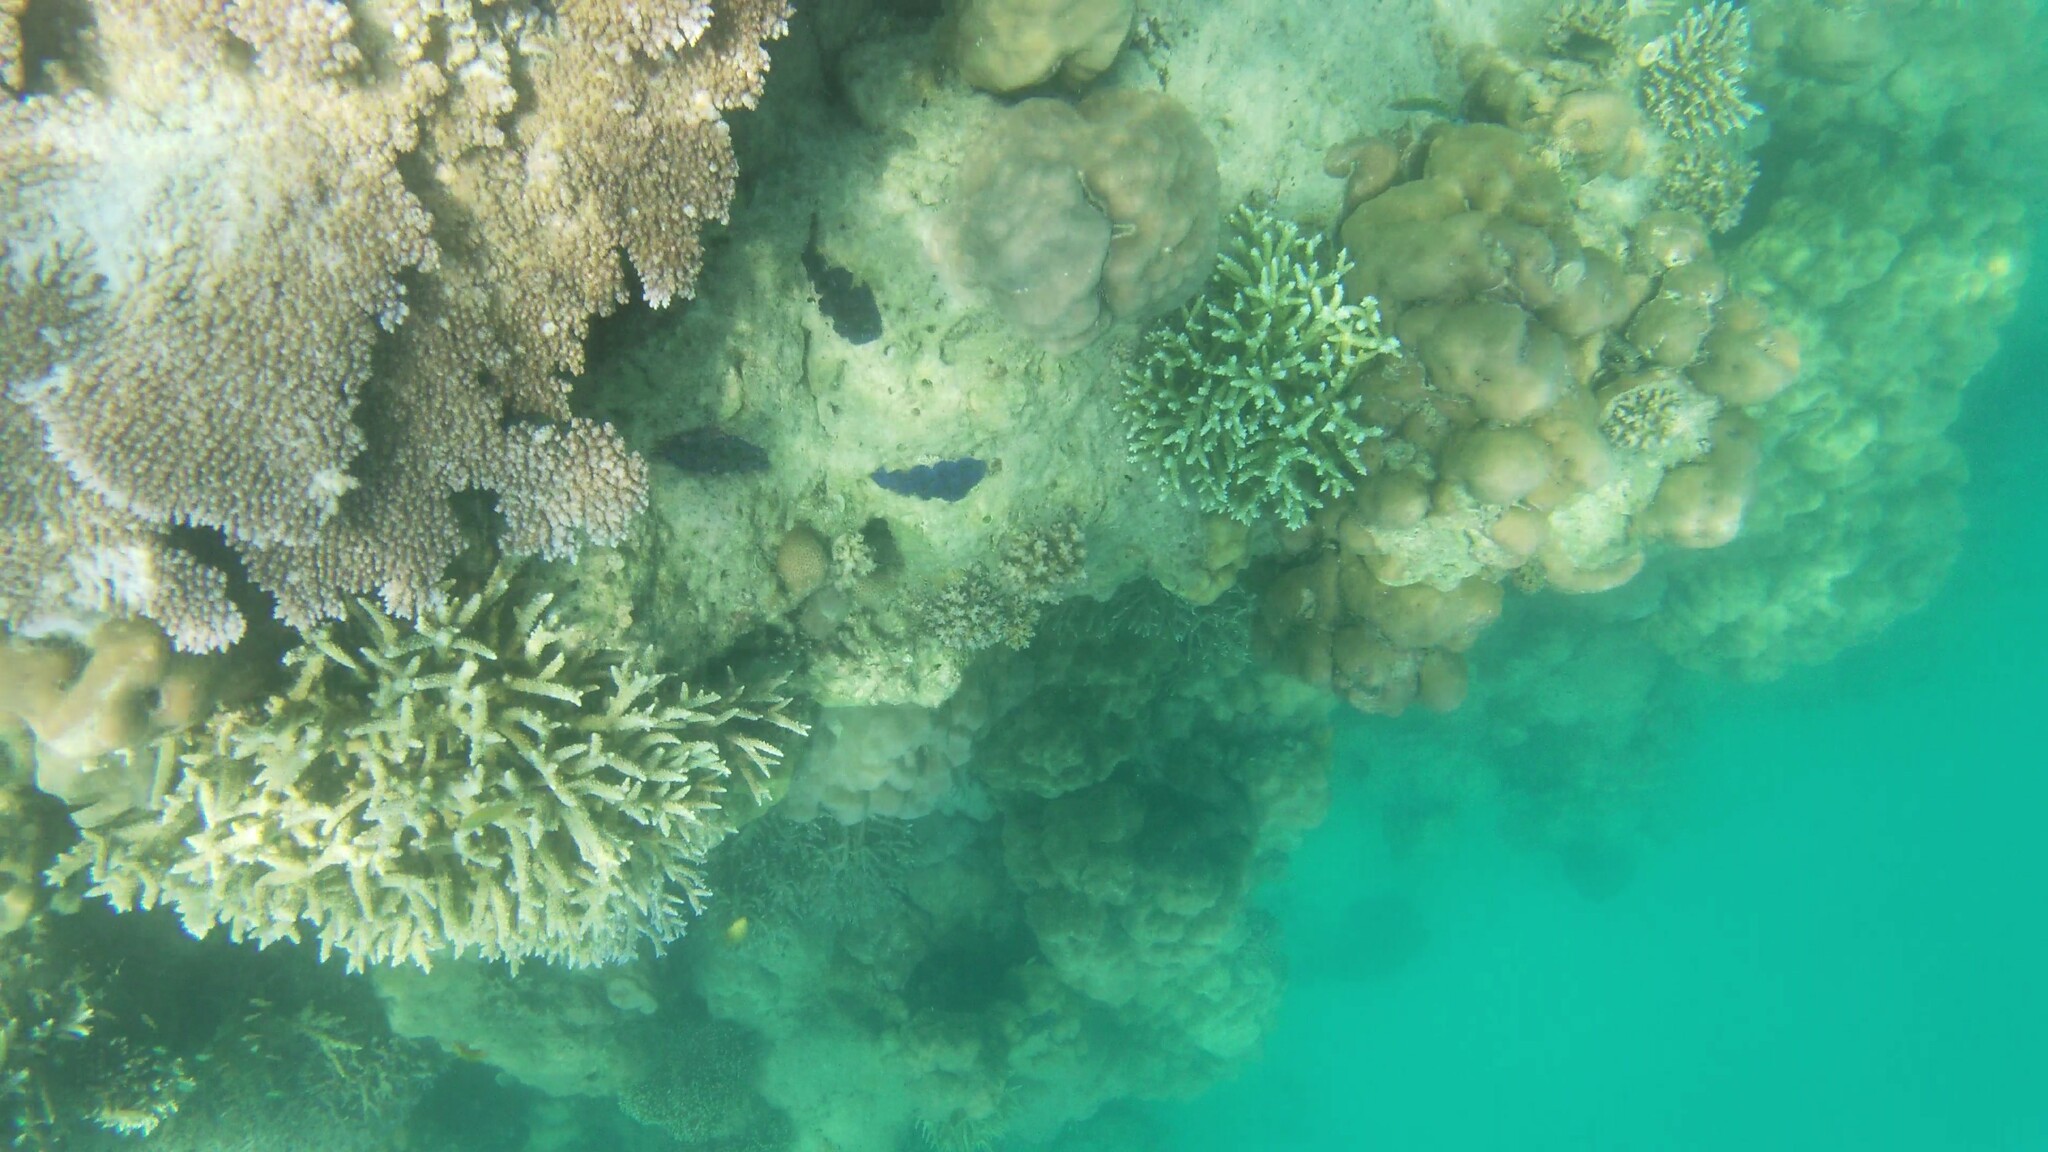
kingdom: Animalia
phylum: Mollusca
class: Bivalvia
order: Cardiida
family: Cardiidae
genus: Tridacna
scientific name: Tridacna crocea
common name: Boring clam
